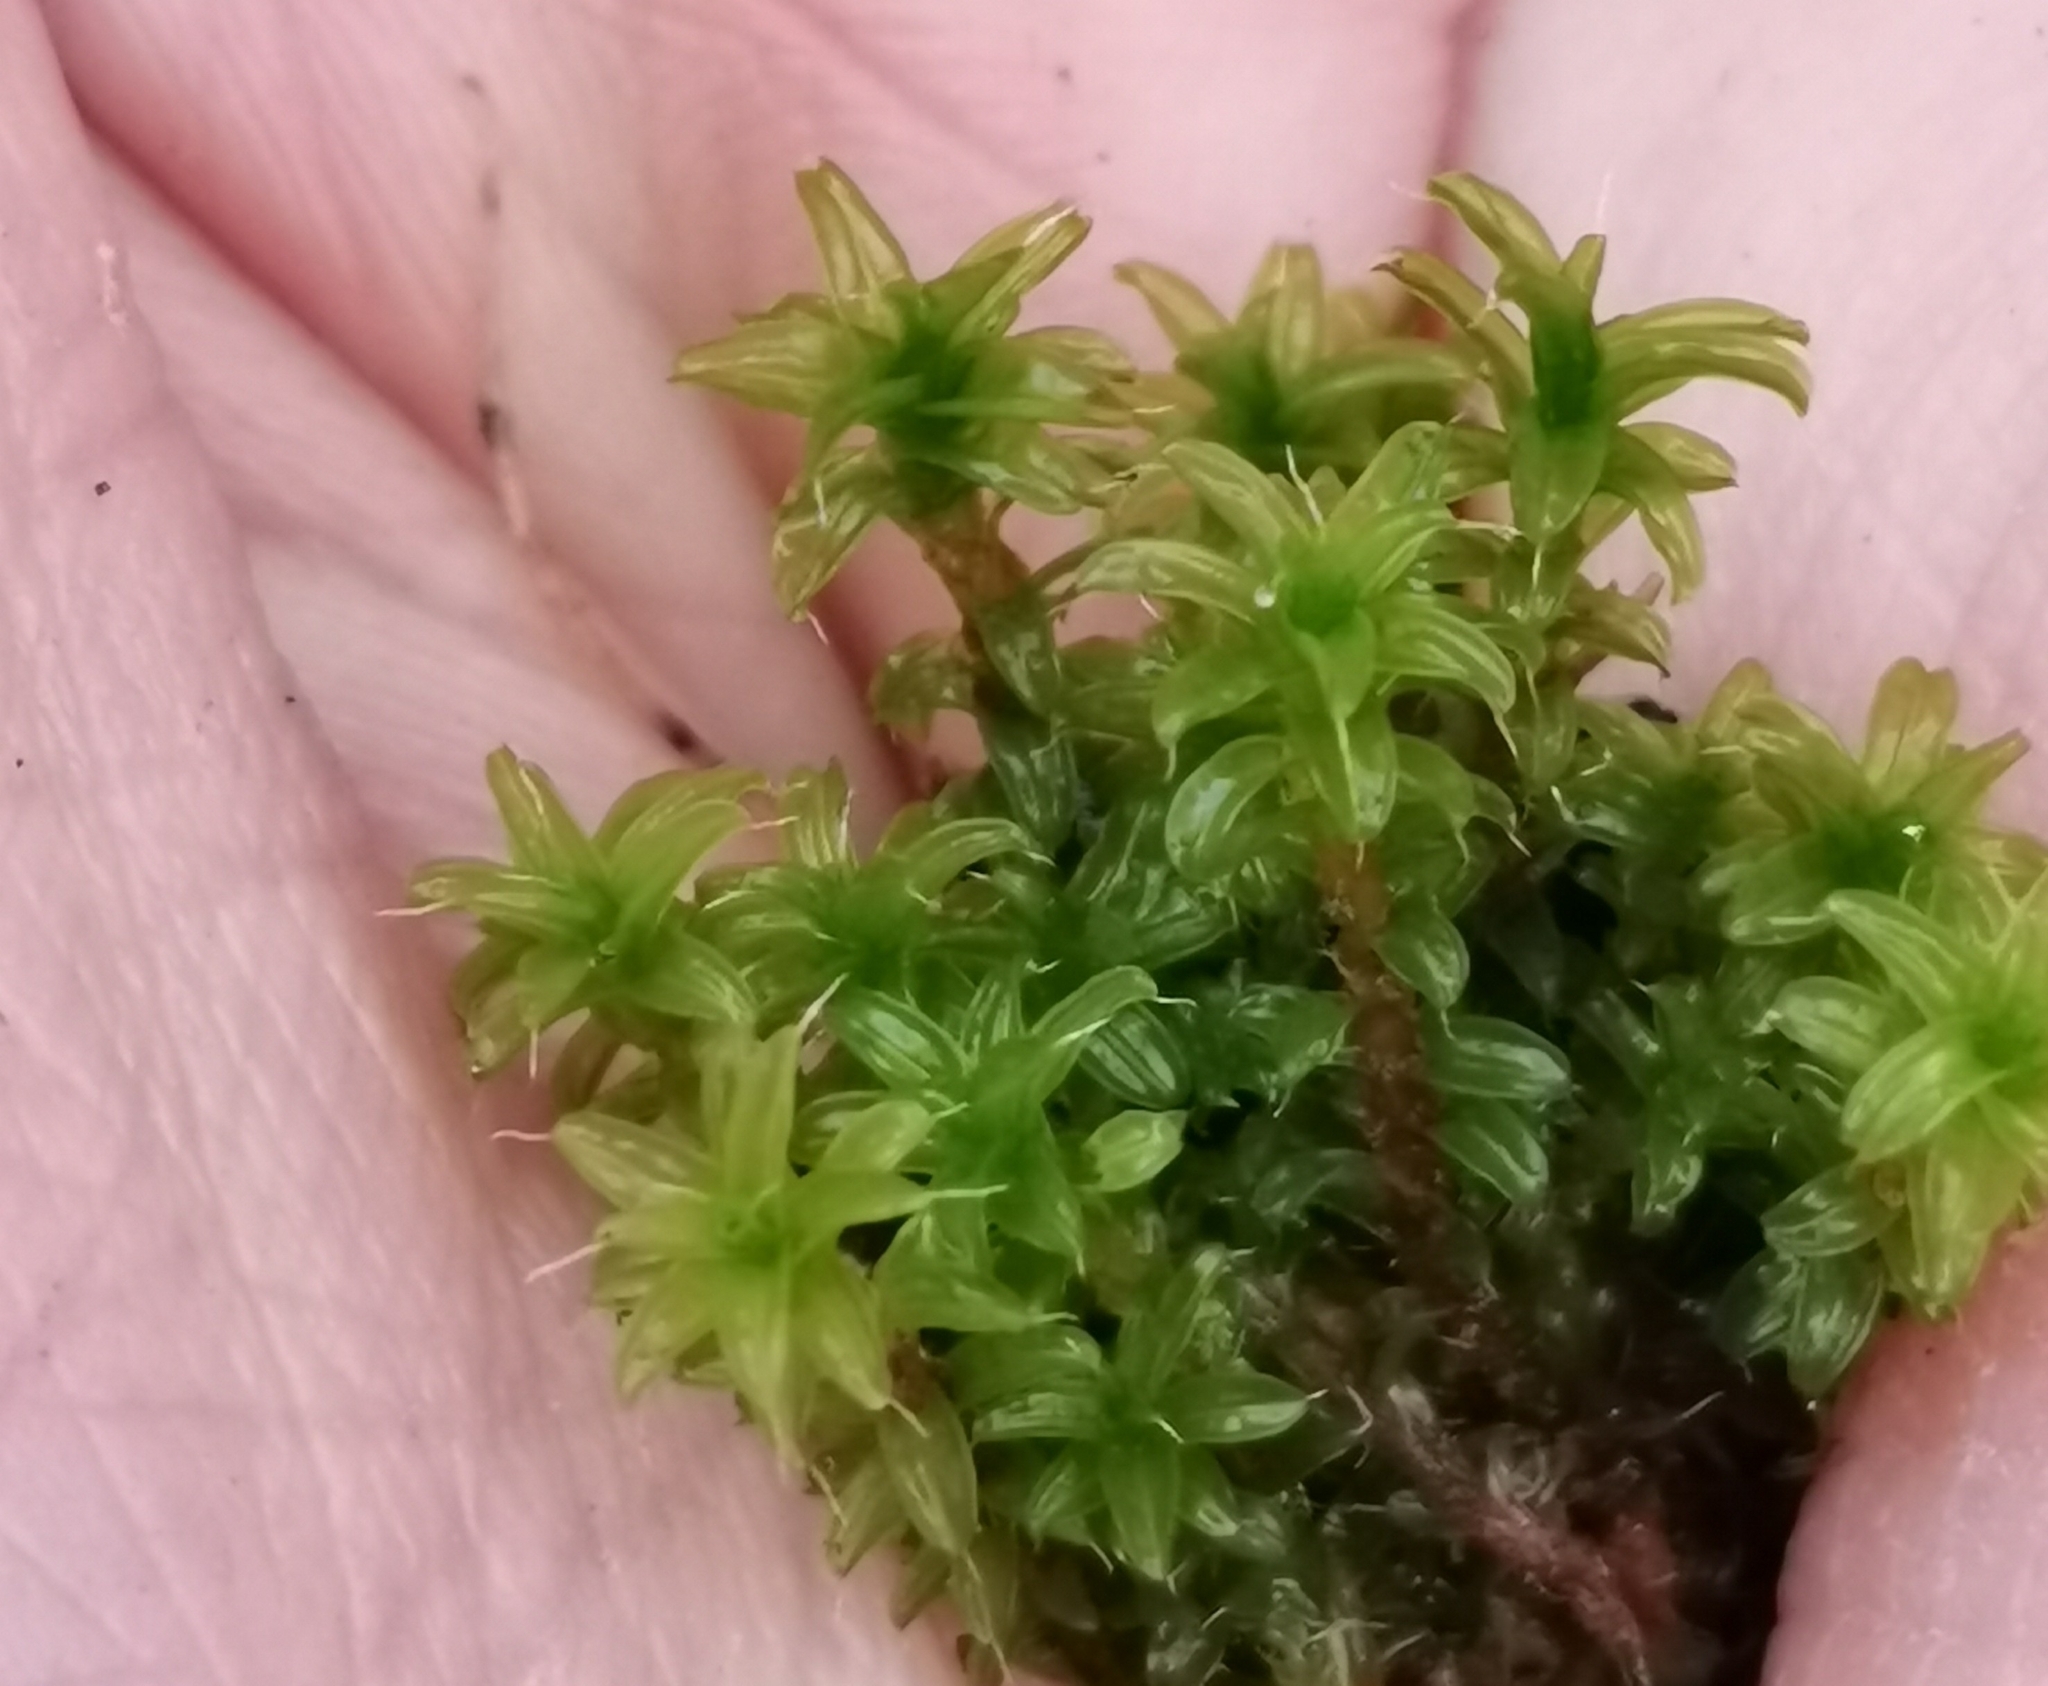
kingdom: Plantae
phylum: Bryophyta
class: Bryopsida
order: Pottiales
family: Pottiaceae
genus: Syntrichia
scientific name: Syntrichia ruralis
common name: Sidewalk screw moss
